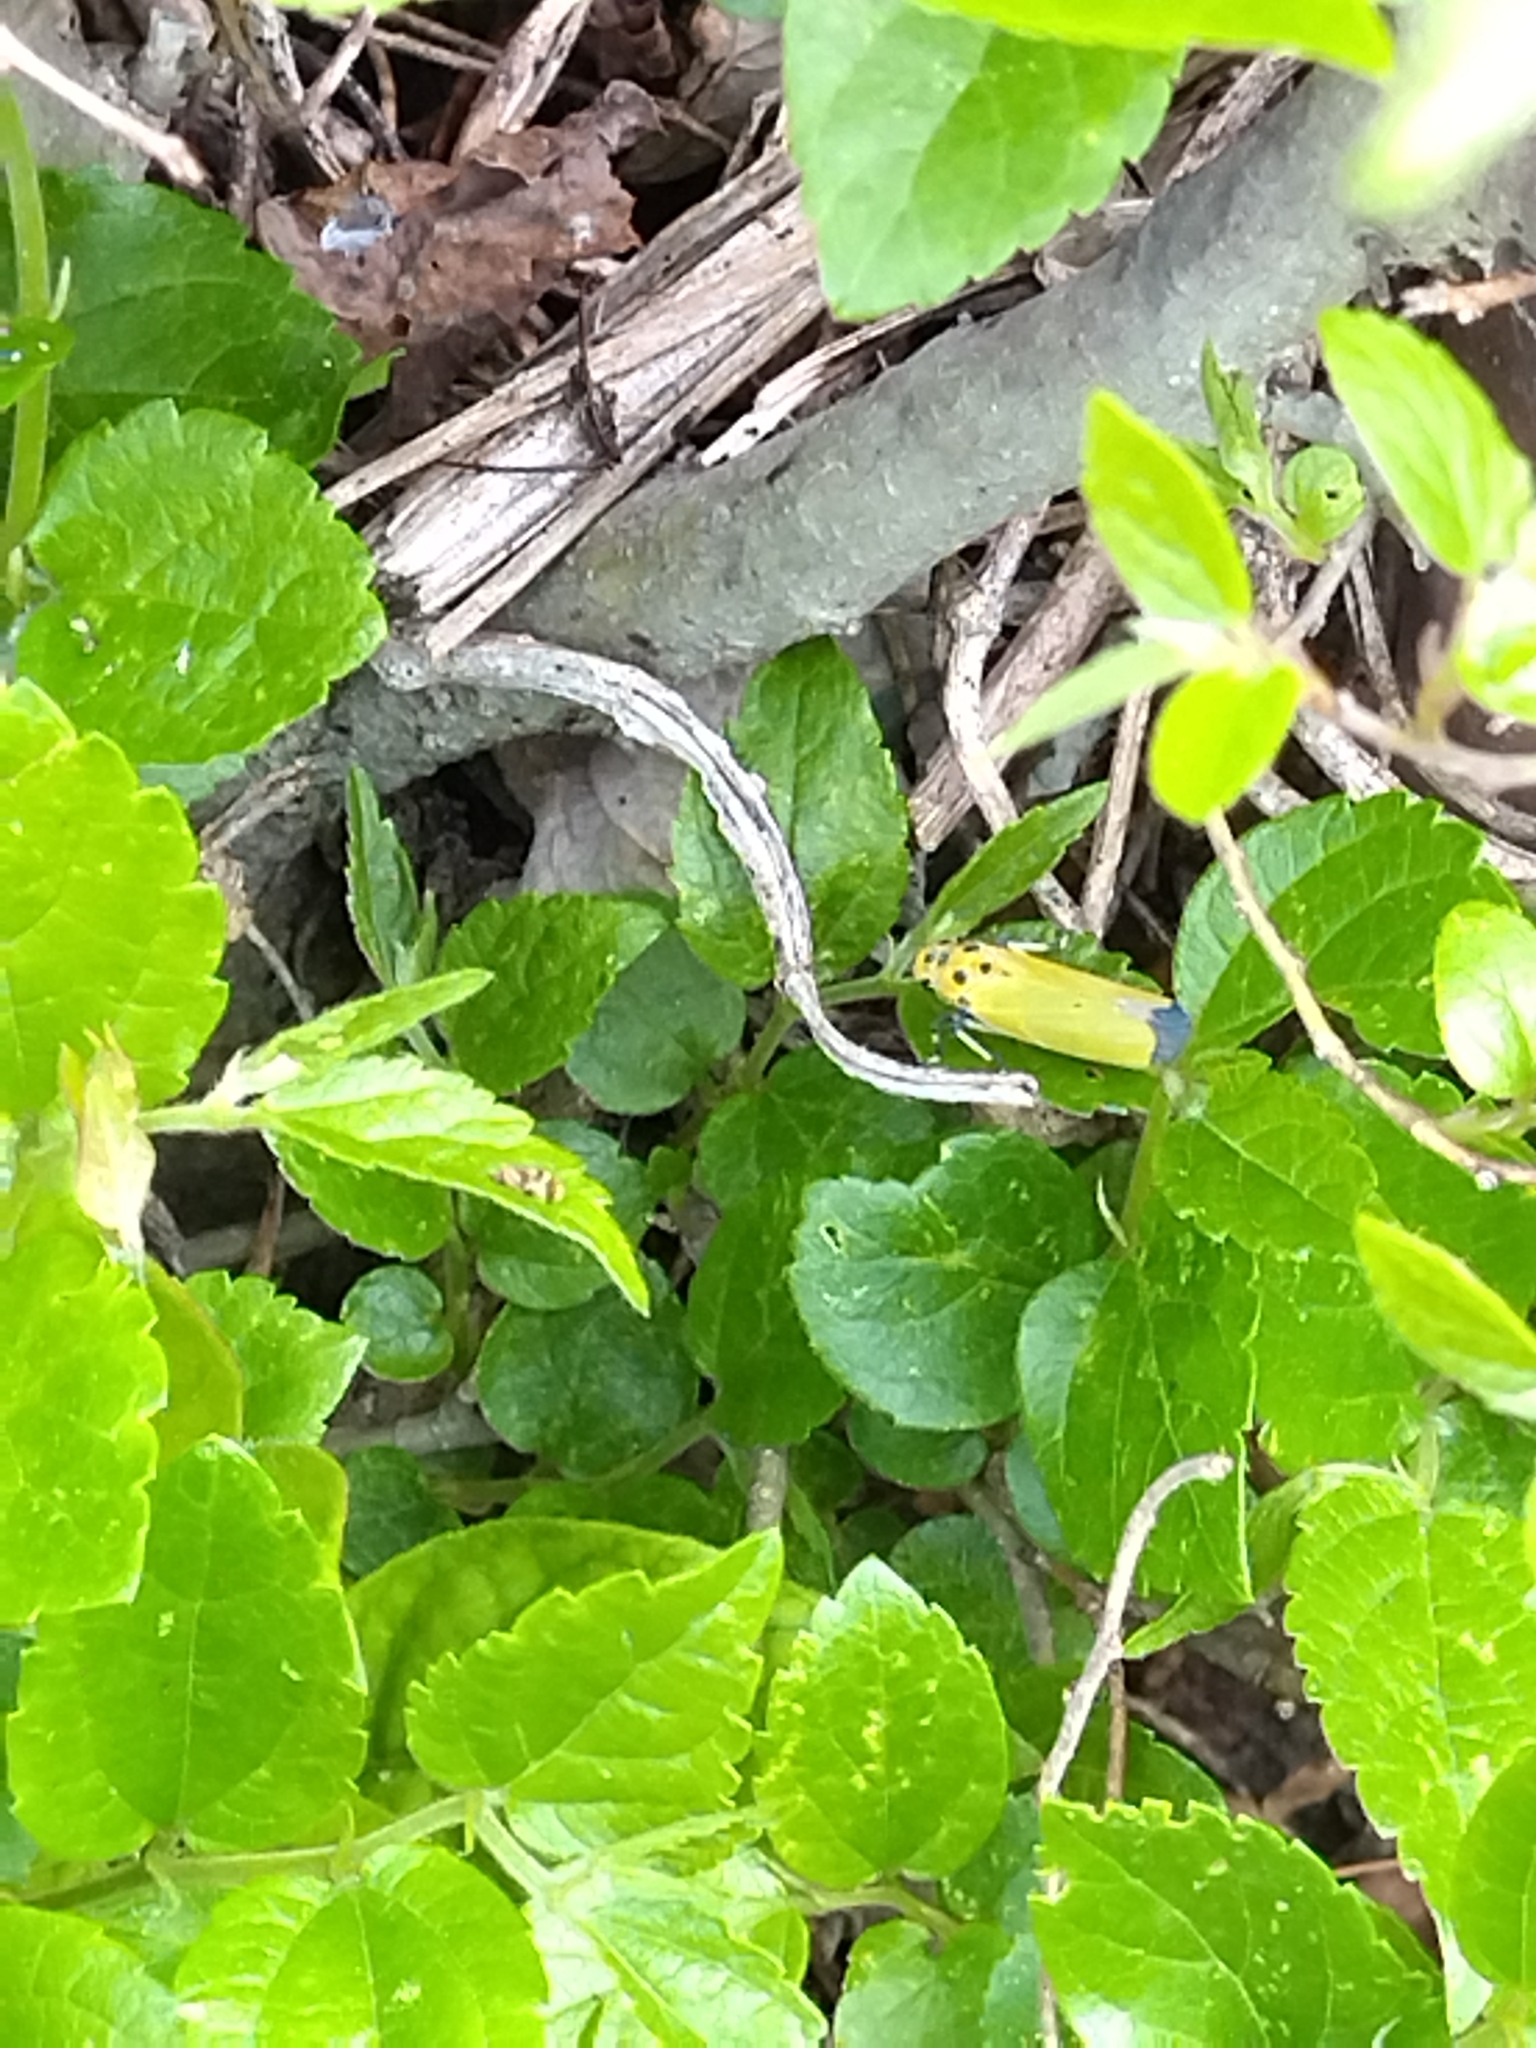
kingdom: Animalia
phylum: Arthropoda
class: Insecta
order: Hemiptera
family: Cicadellidae
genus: Bothrogonia
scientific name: Bothrogonia ferruginea
